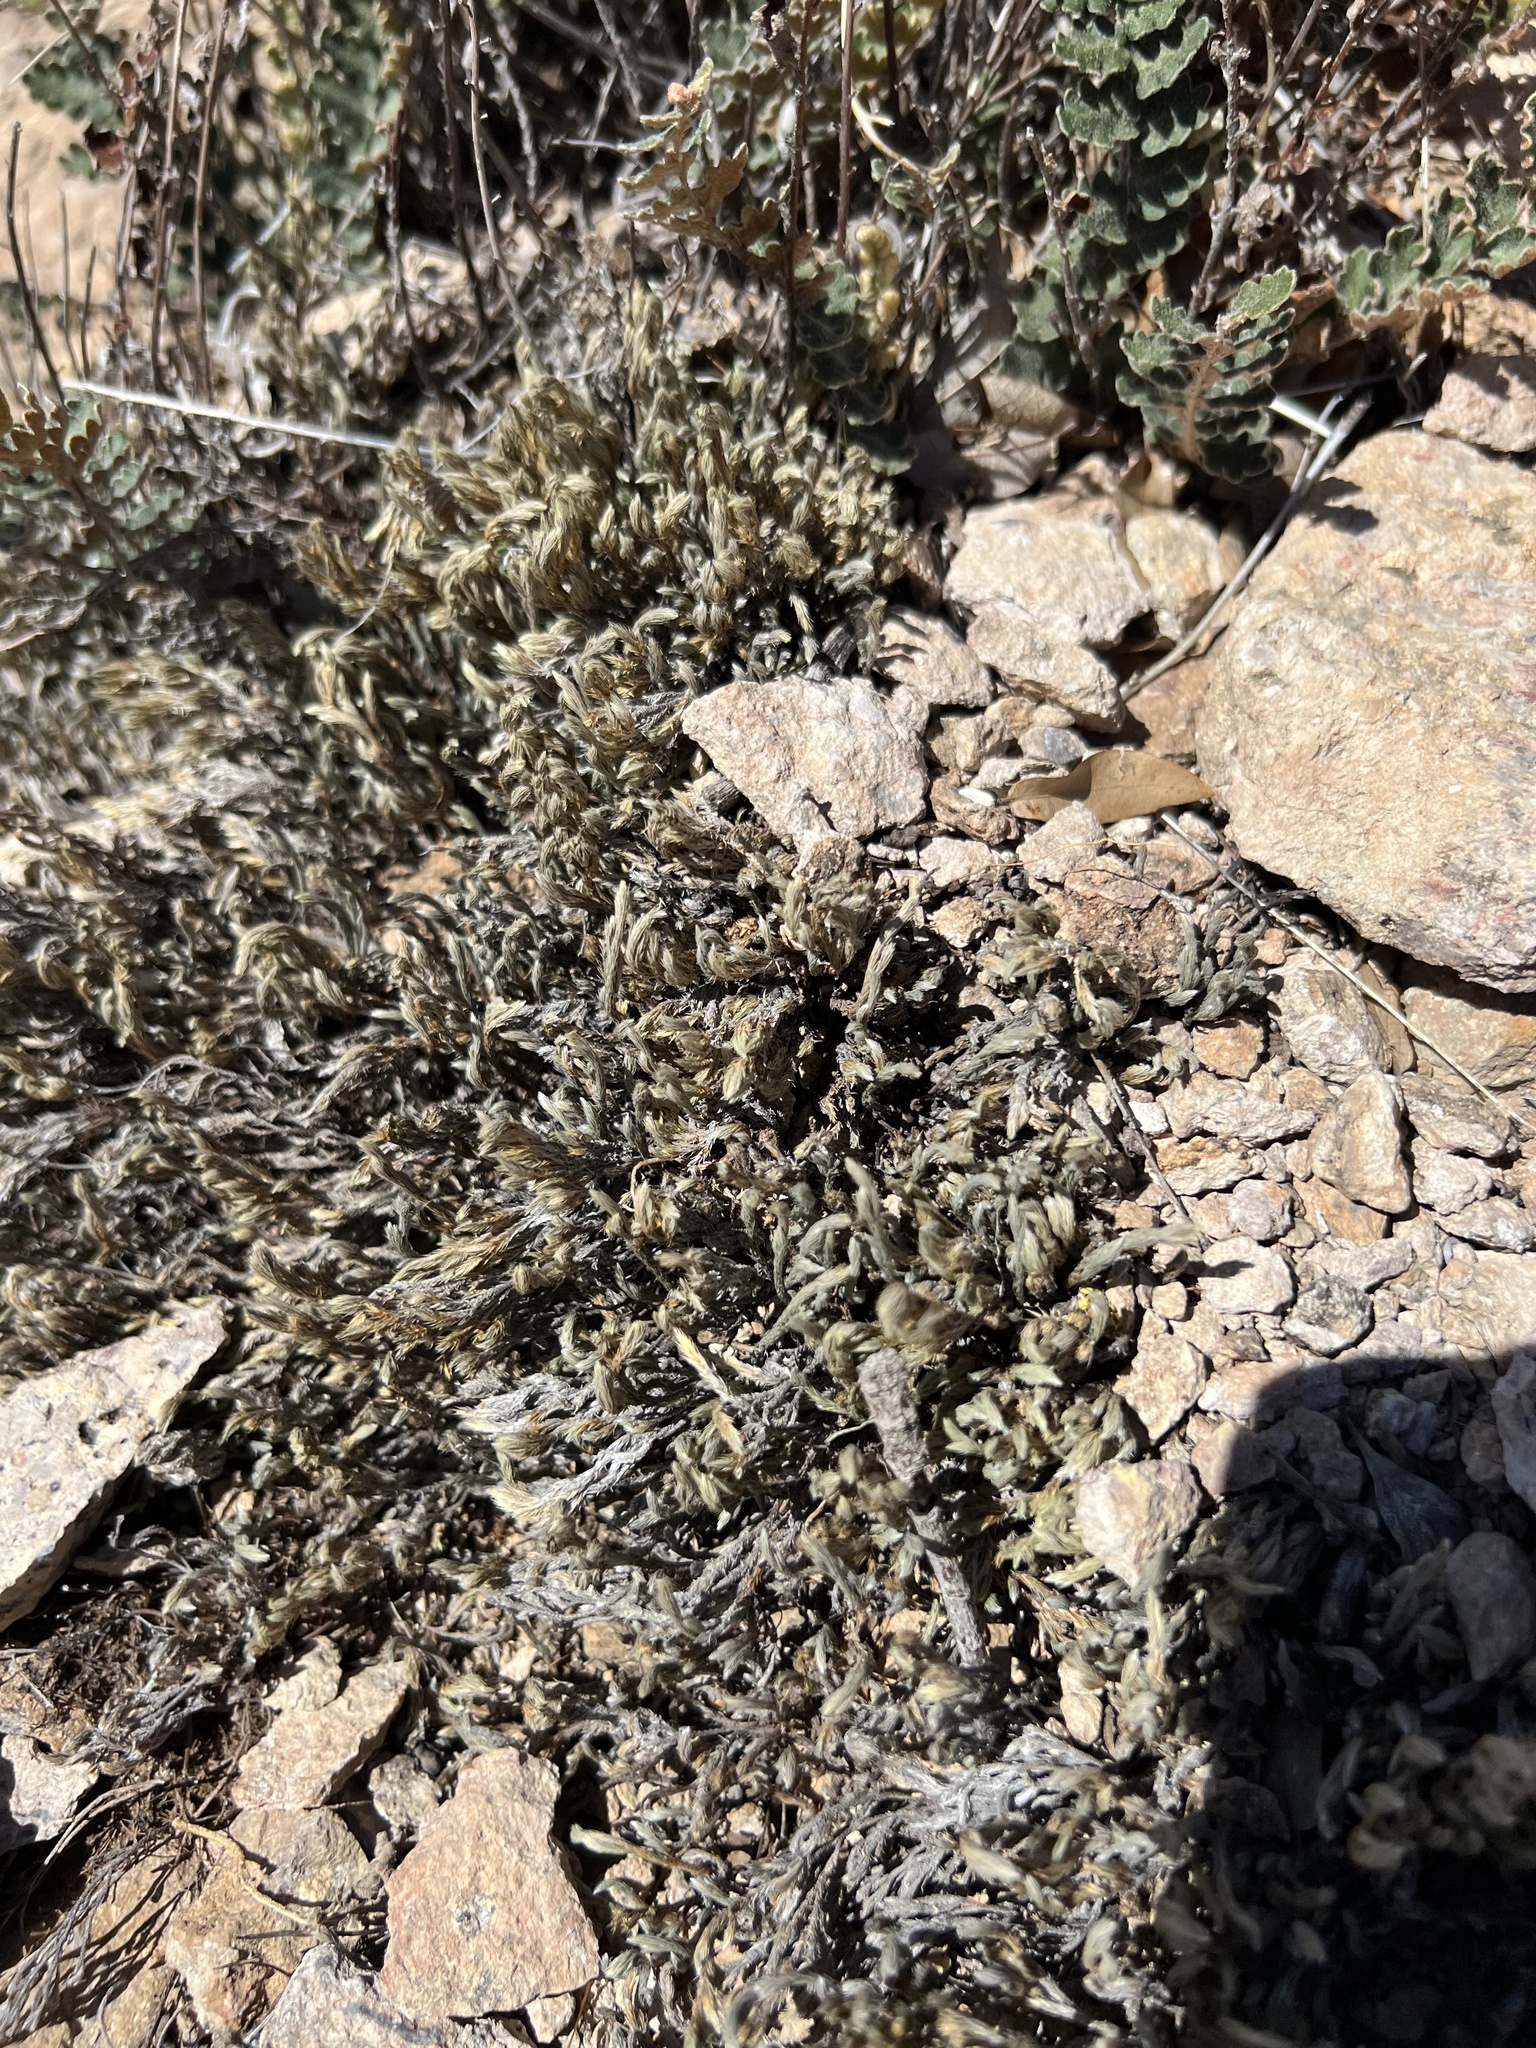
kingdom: Plantae
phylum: Tracheophyta
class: Lycopodiopsida
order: Selaginellales
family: Selaginellaceae
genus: Selaginella
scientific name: Selaginella rupincola
